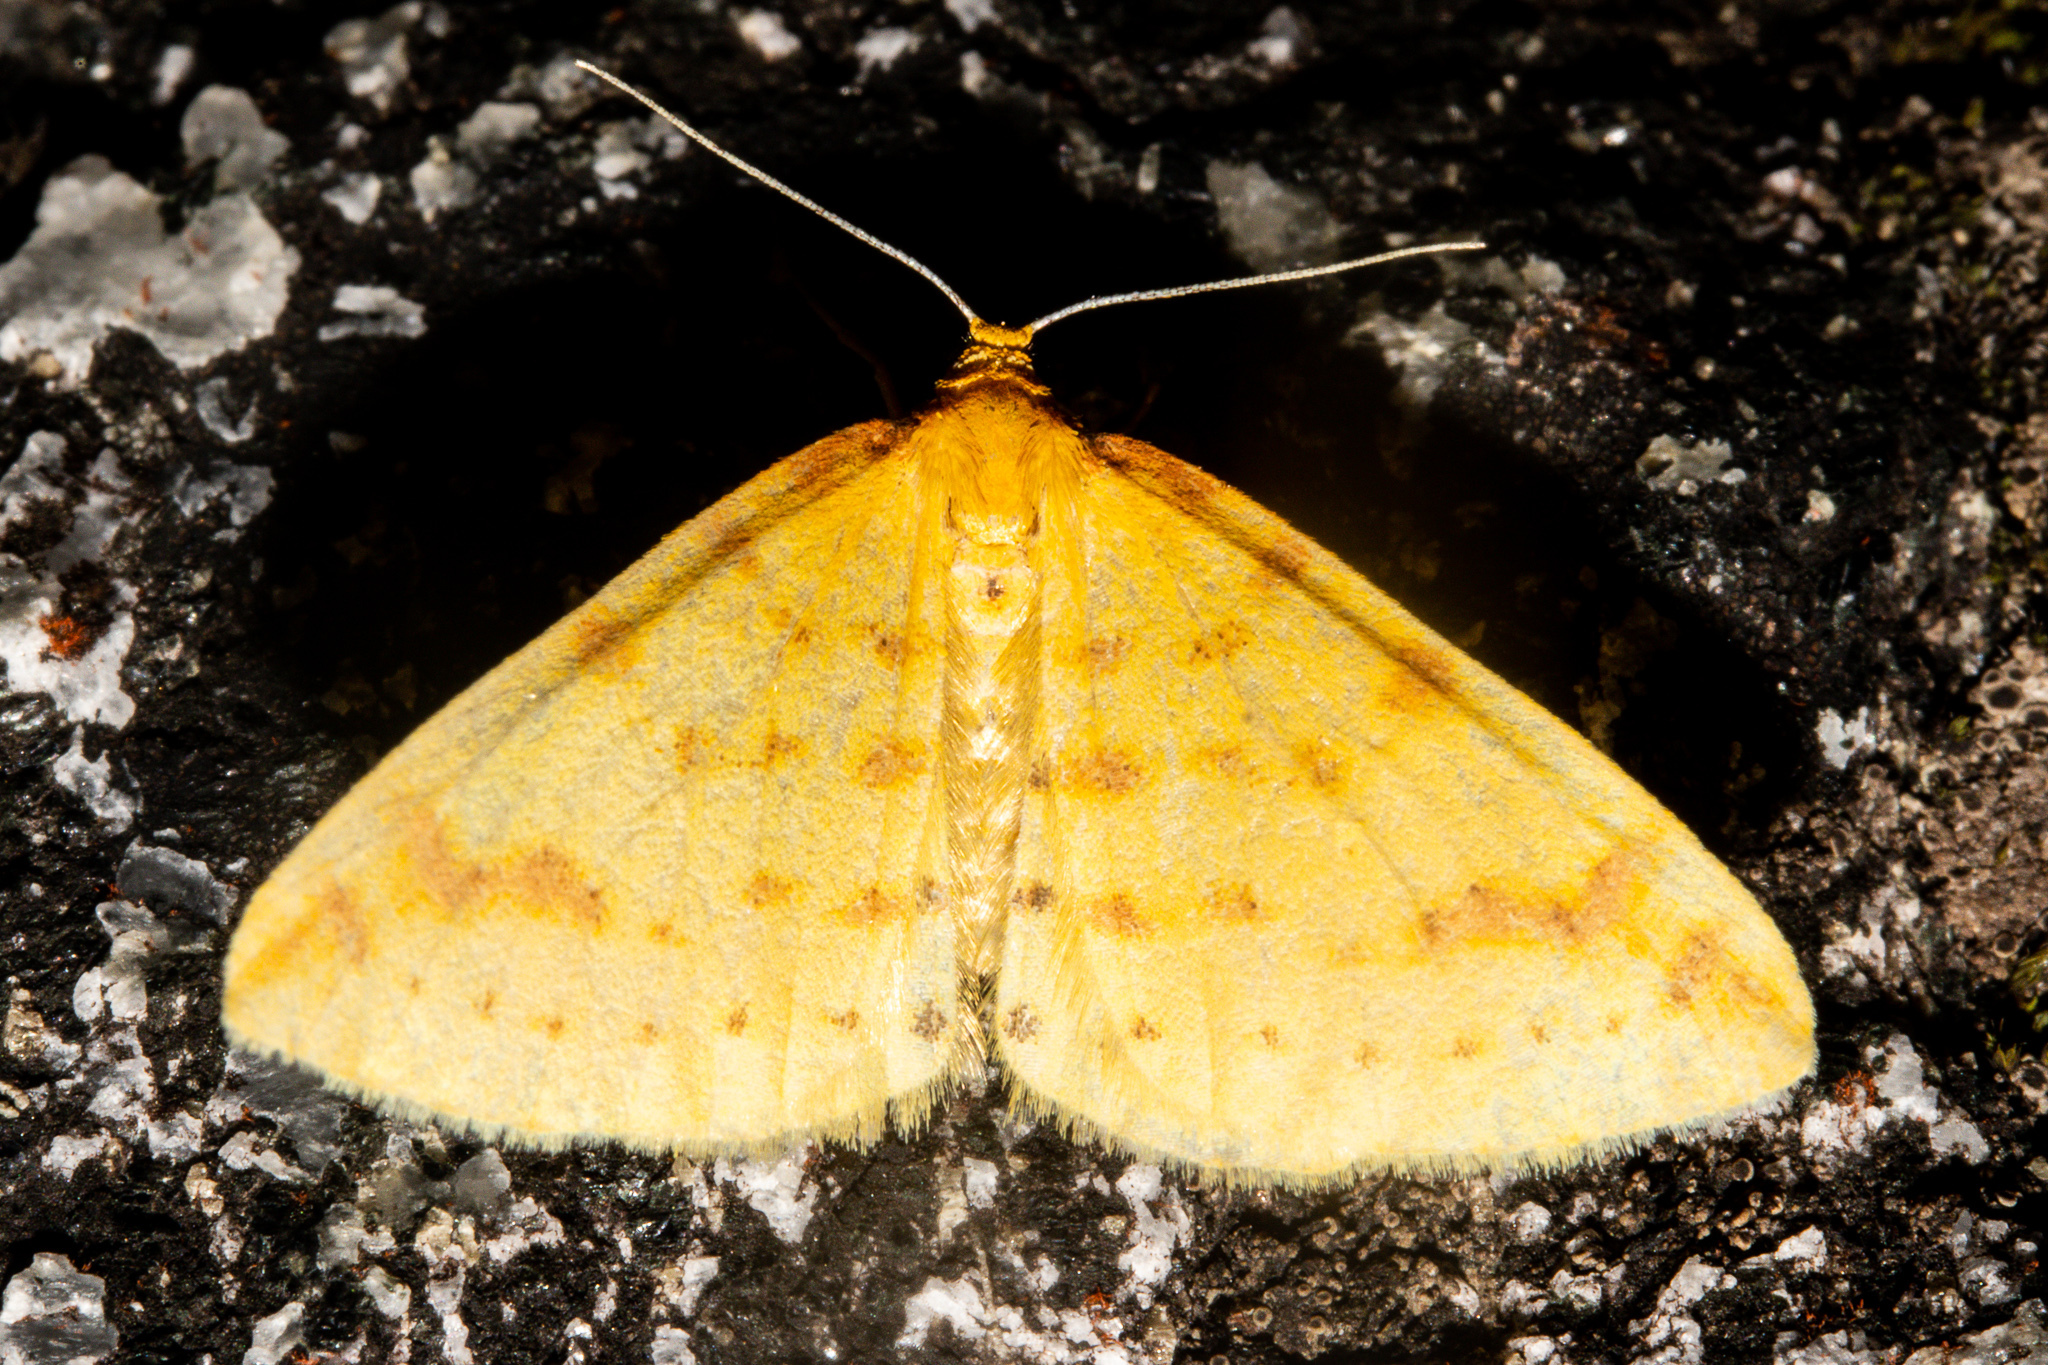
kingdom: Animalia
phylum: Arthropoda
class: Insecta
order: Lepidoptera
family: Geometridae
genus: Orthoclydon
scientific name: Orthoclydon chlorias
